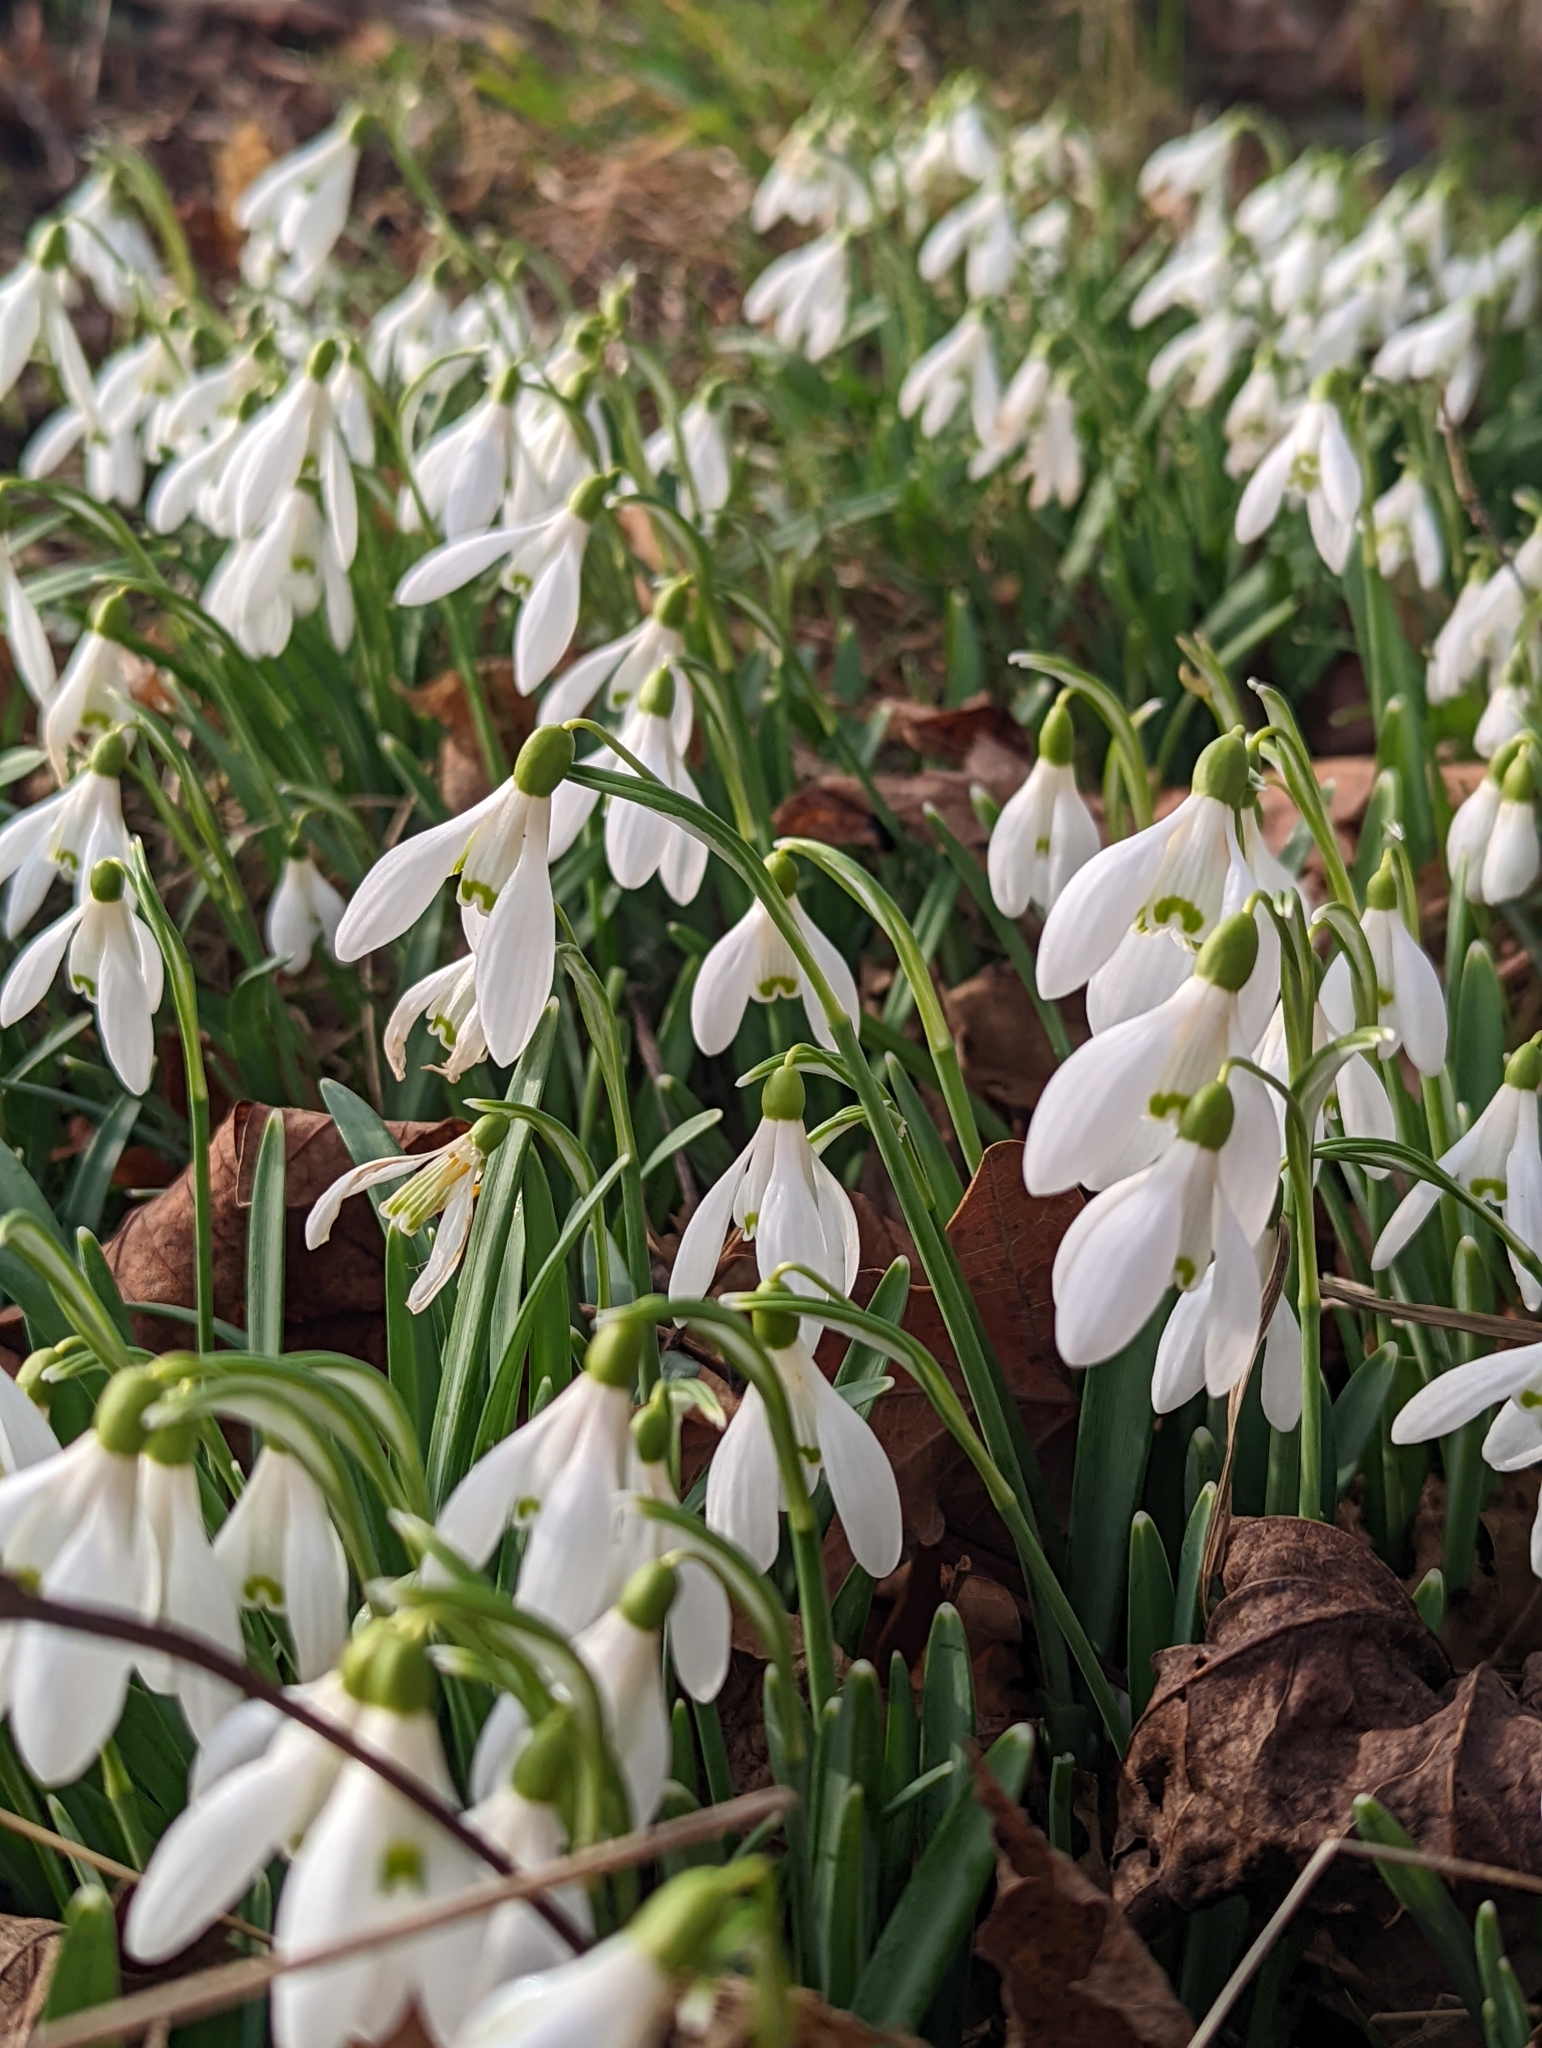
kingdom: Plantae
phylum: Tracheophyta
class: Liliopsida
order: Asparagales
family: Amaryllidaceae
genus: Galanthus
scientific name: Galanthus nivalis
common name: Snowdrop
